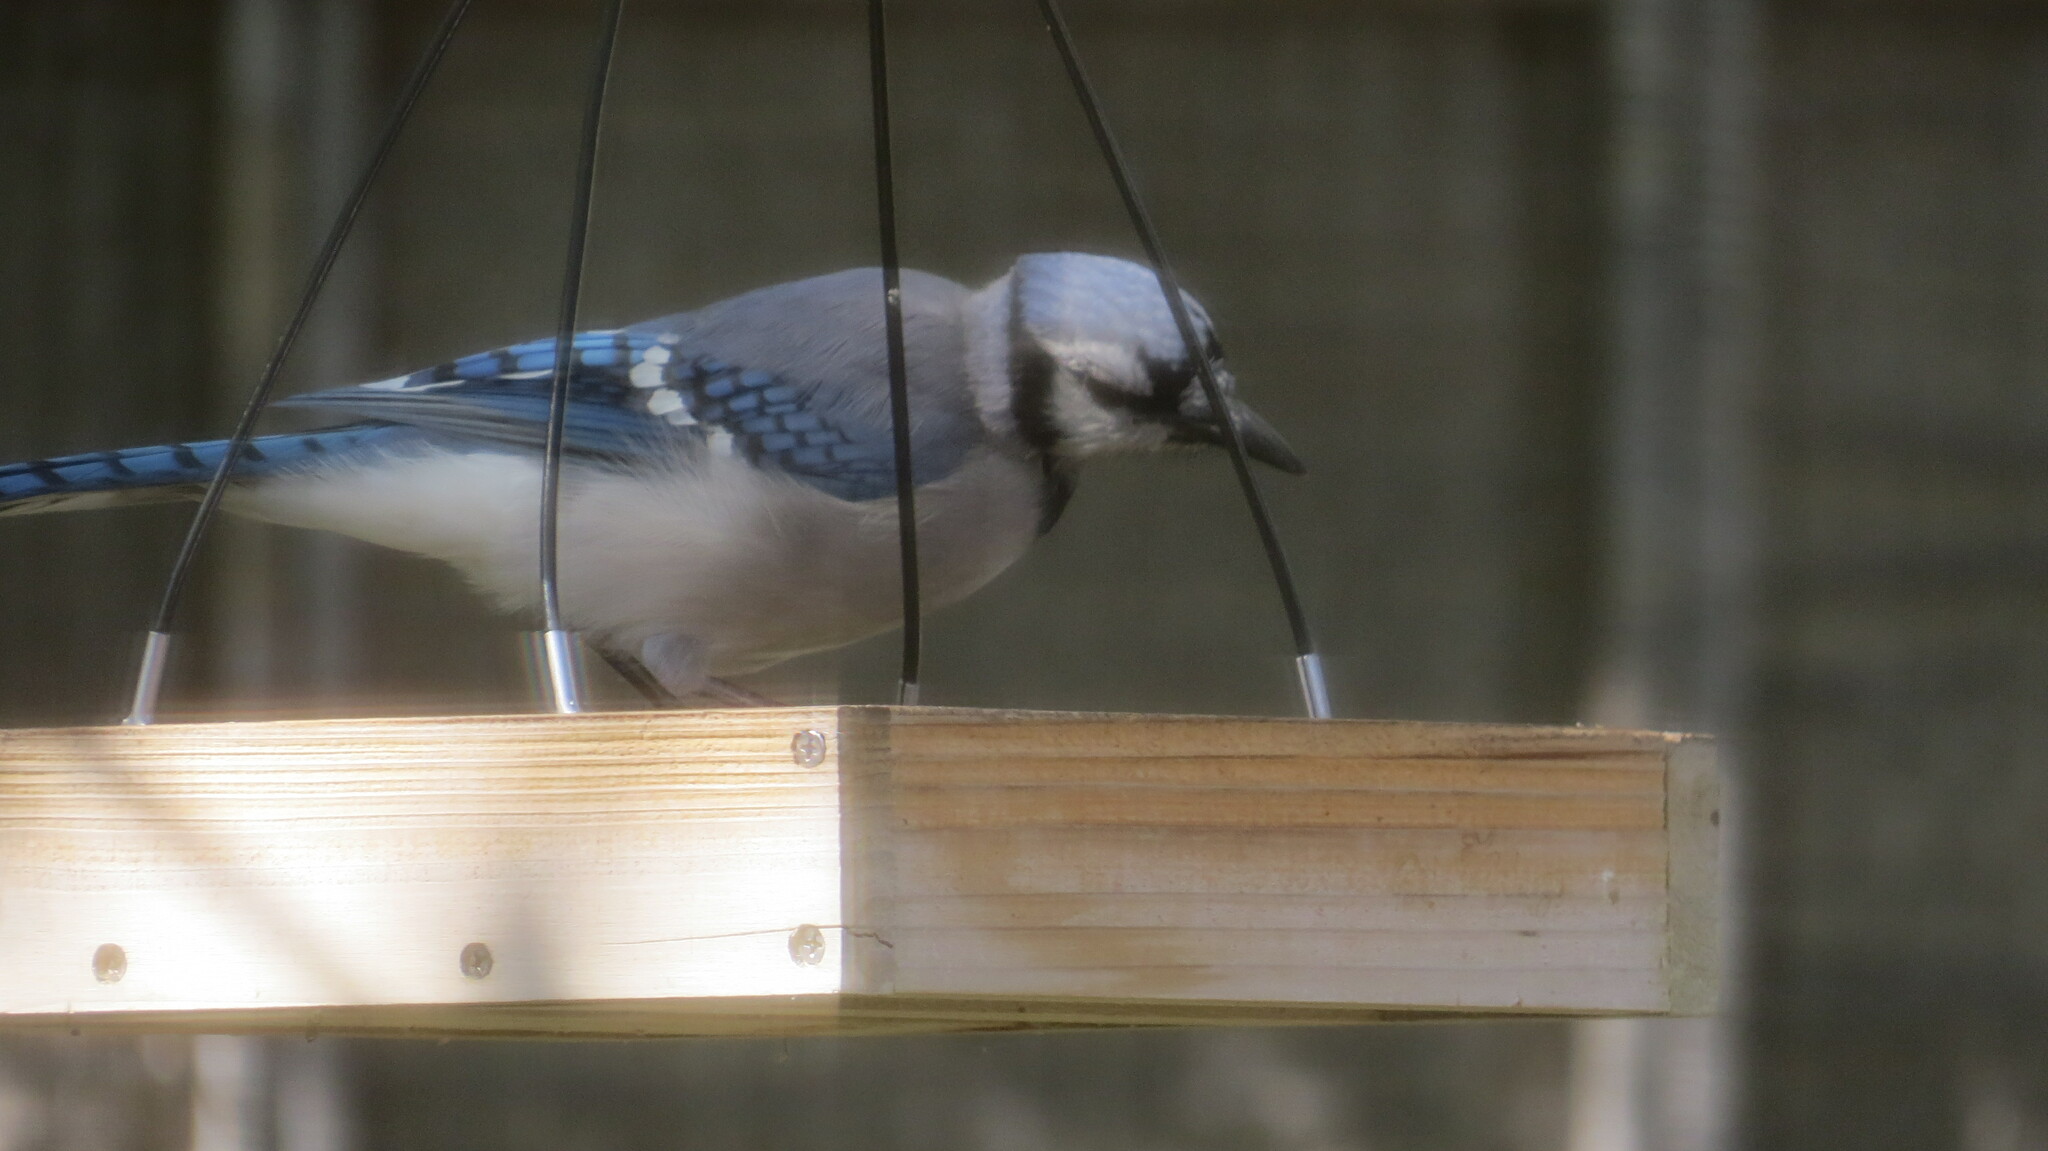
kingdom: Animalia
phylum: Chordata
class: Aves
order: Passeriformes
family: Corvidae
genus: Cyanocitta
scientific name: Cyanocitta cristata
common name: Blue jay
